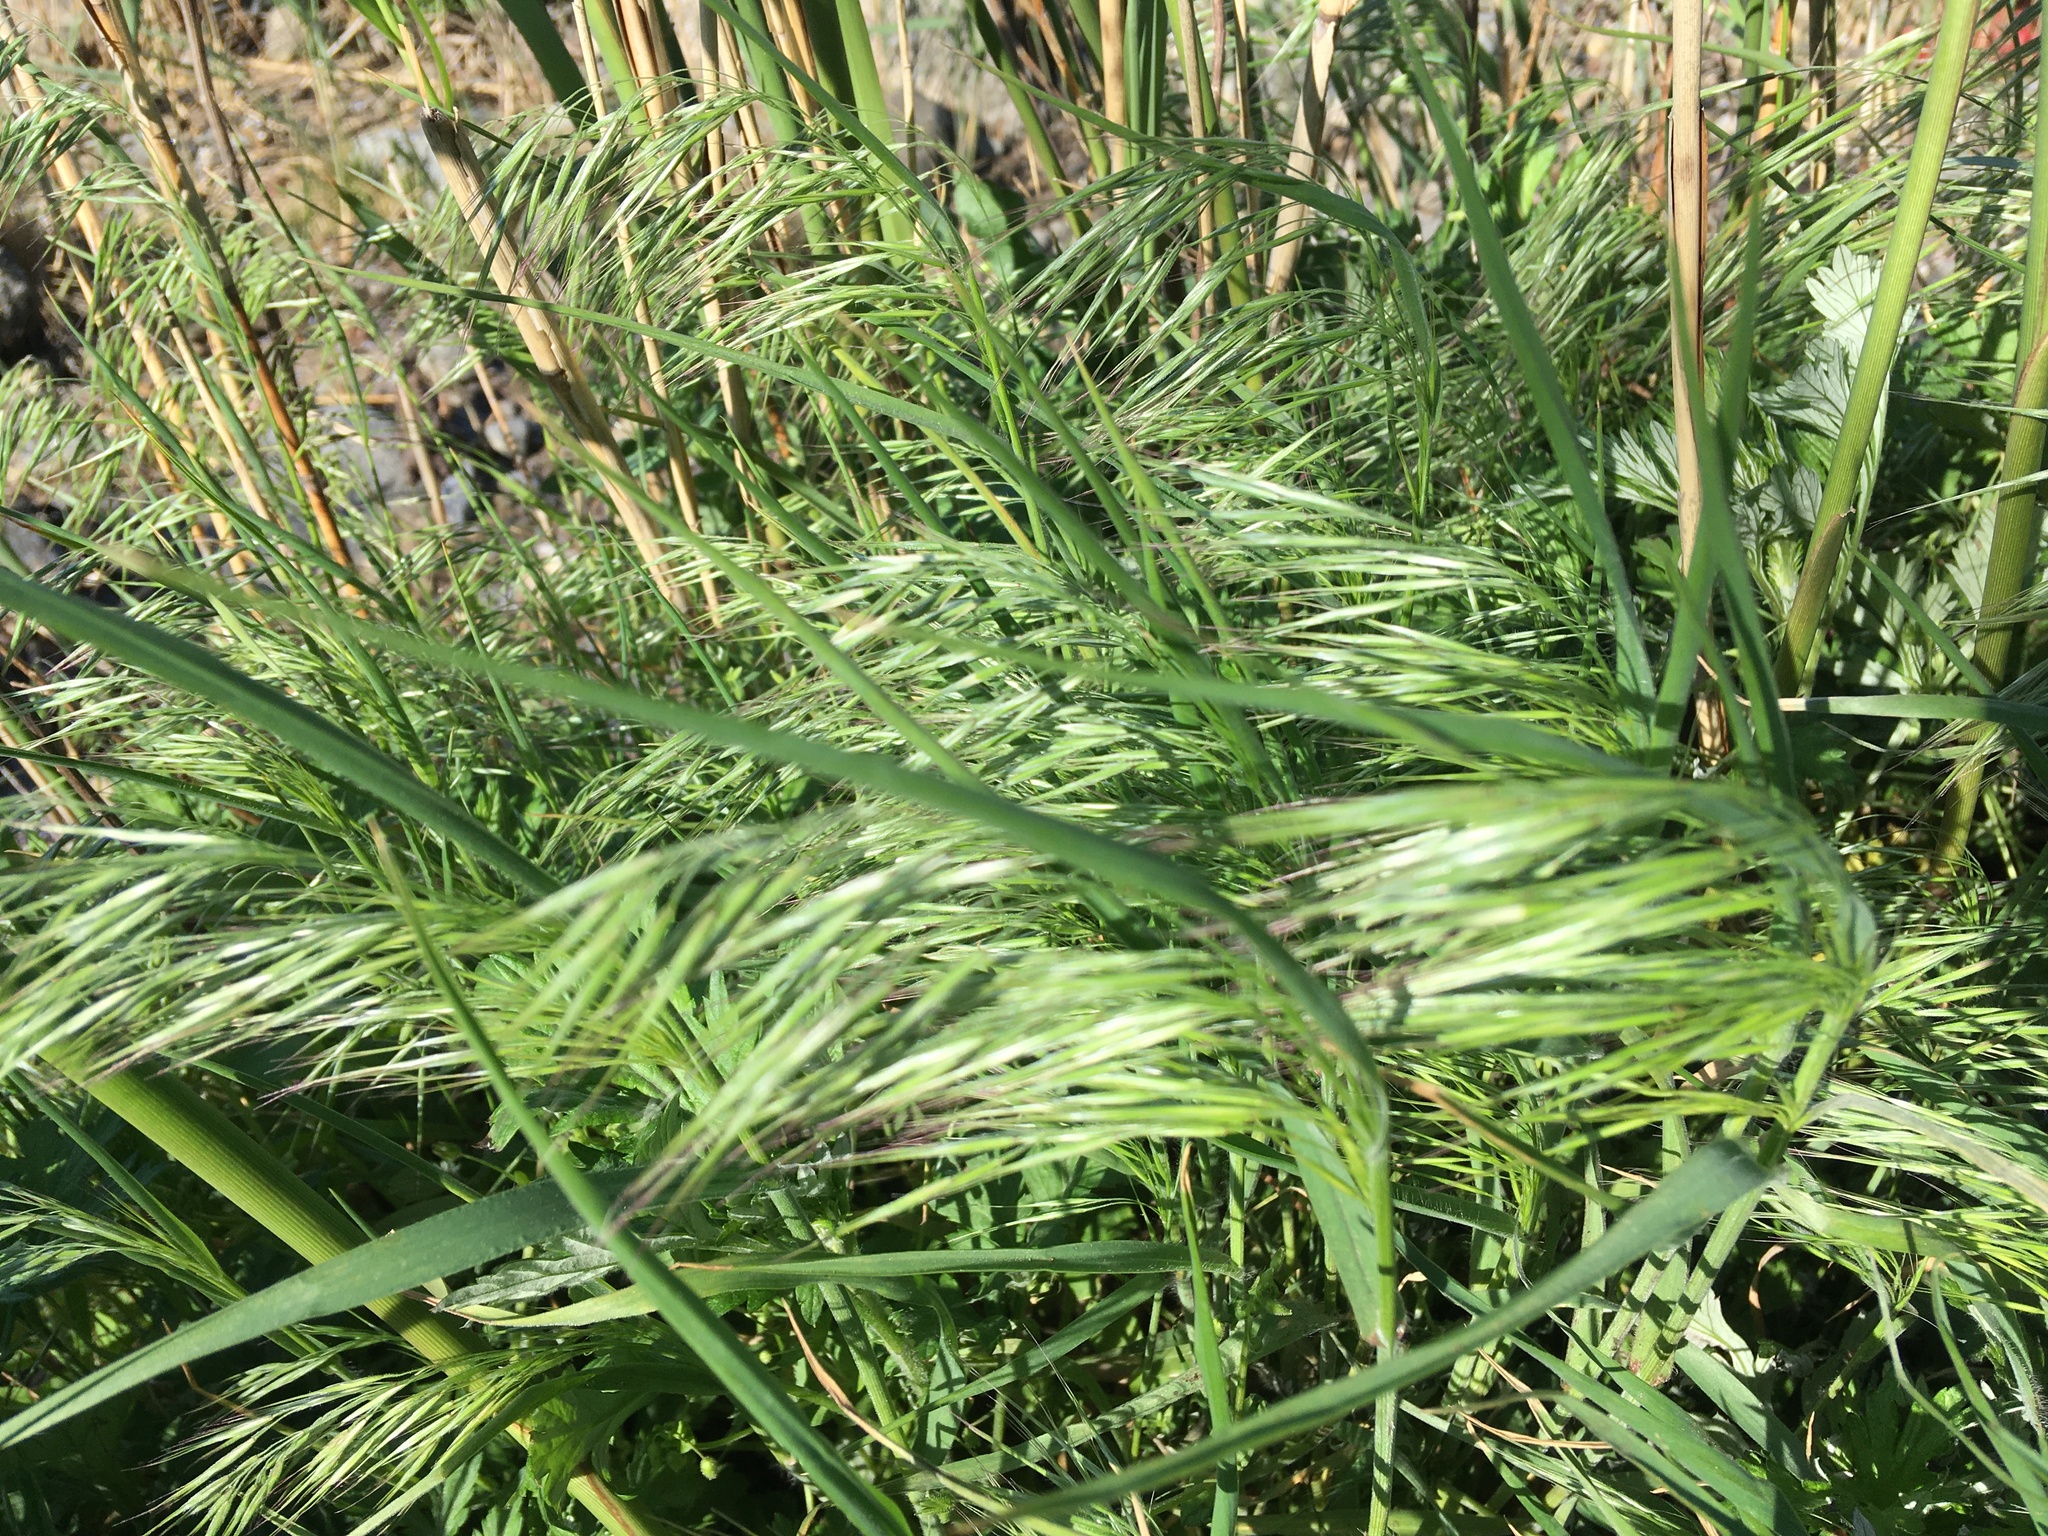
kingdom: Plantae
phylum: Tracheophyta
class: Liliopsida
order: Poales
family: Poaceae
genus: Bromus
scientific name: Bromus tectorum
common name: Cheatgrass
